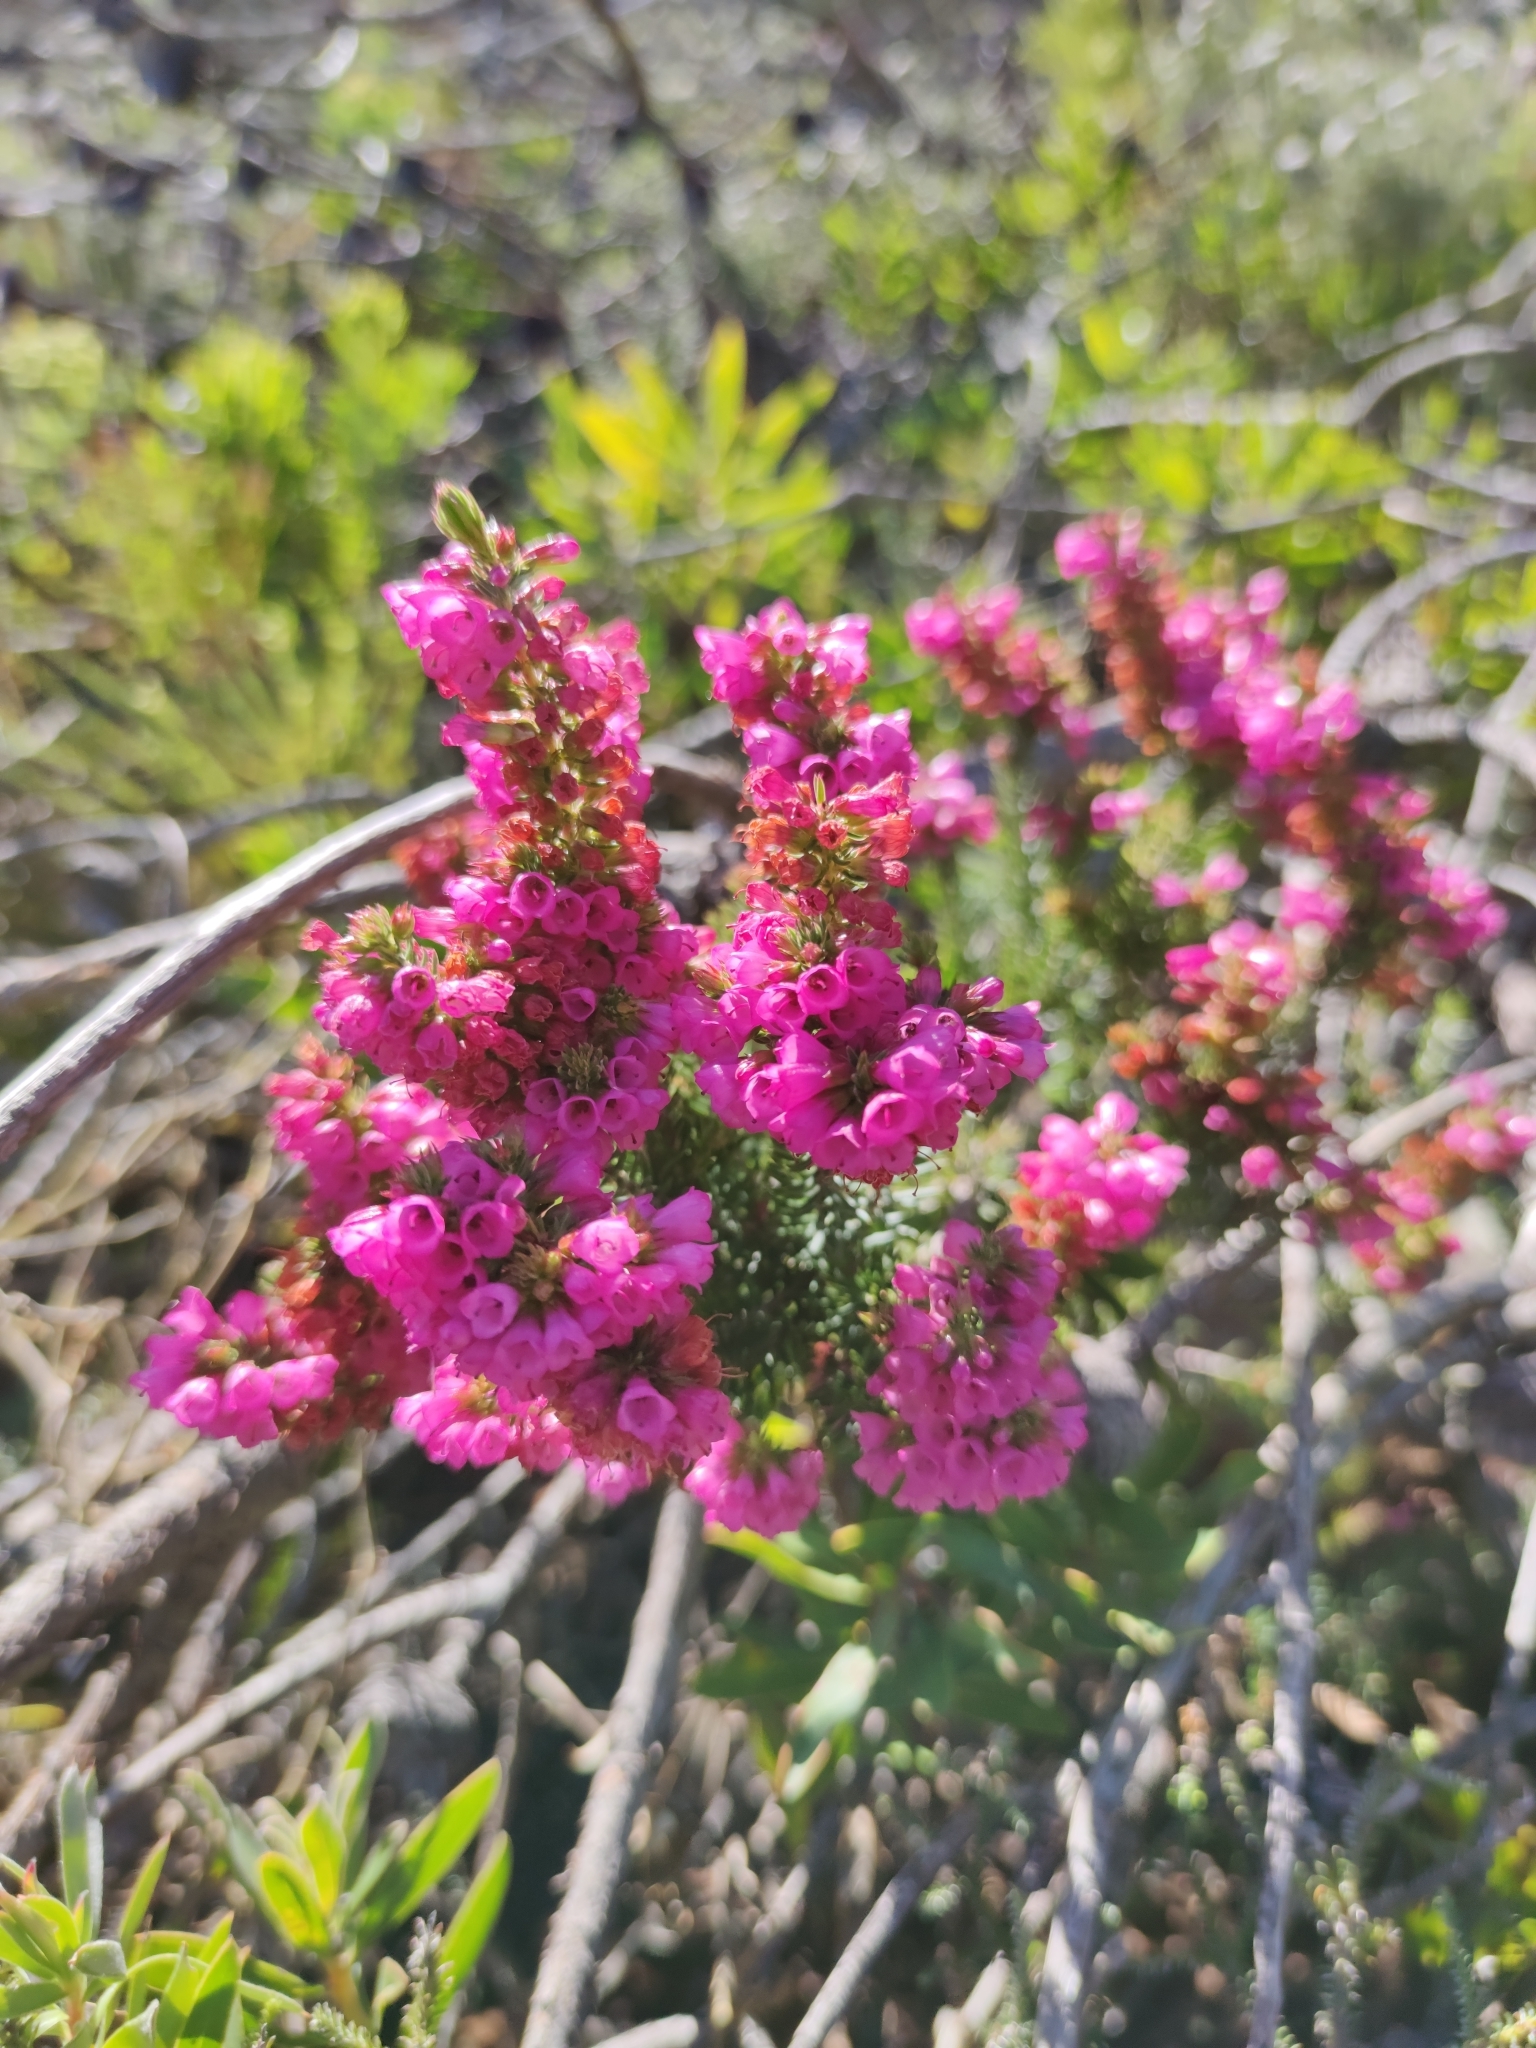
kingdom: Plantae
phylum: Tracheophyta
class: Magnoliopsida
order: Ericales
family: Ericaceae
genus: Erica
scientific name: Erica abietina
